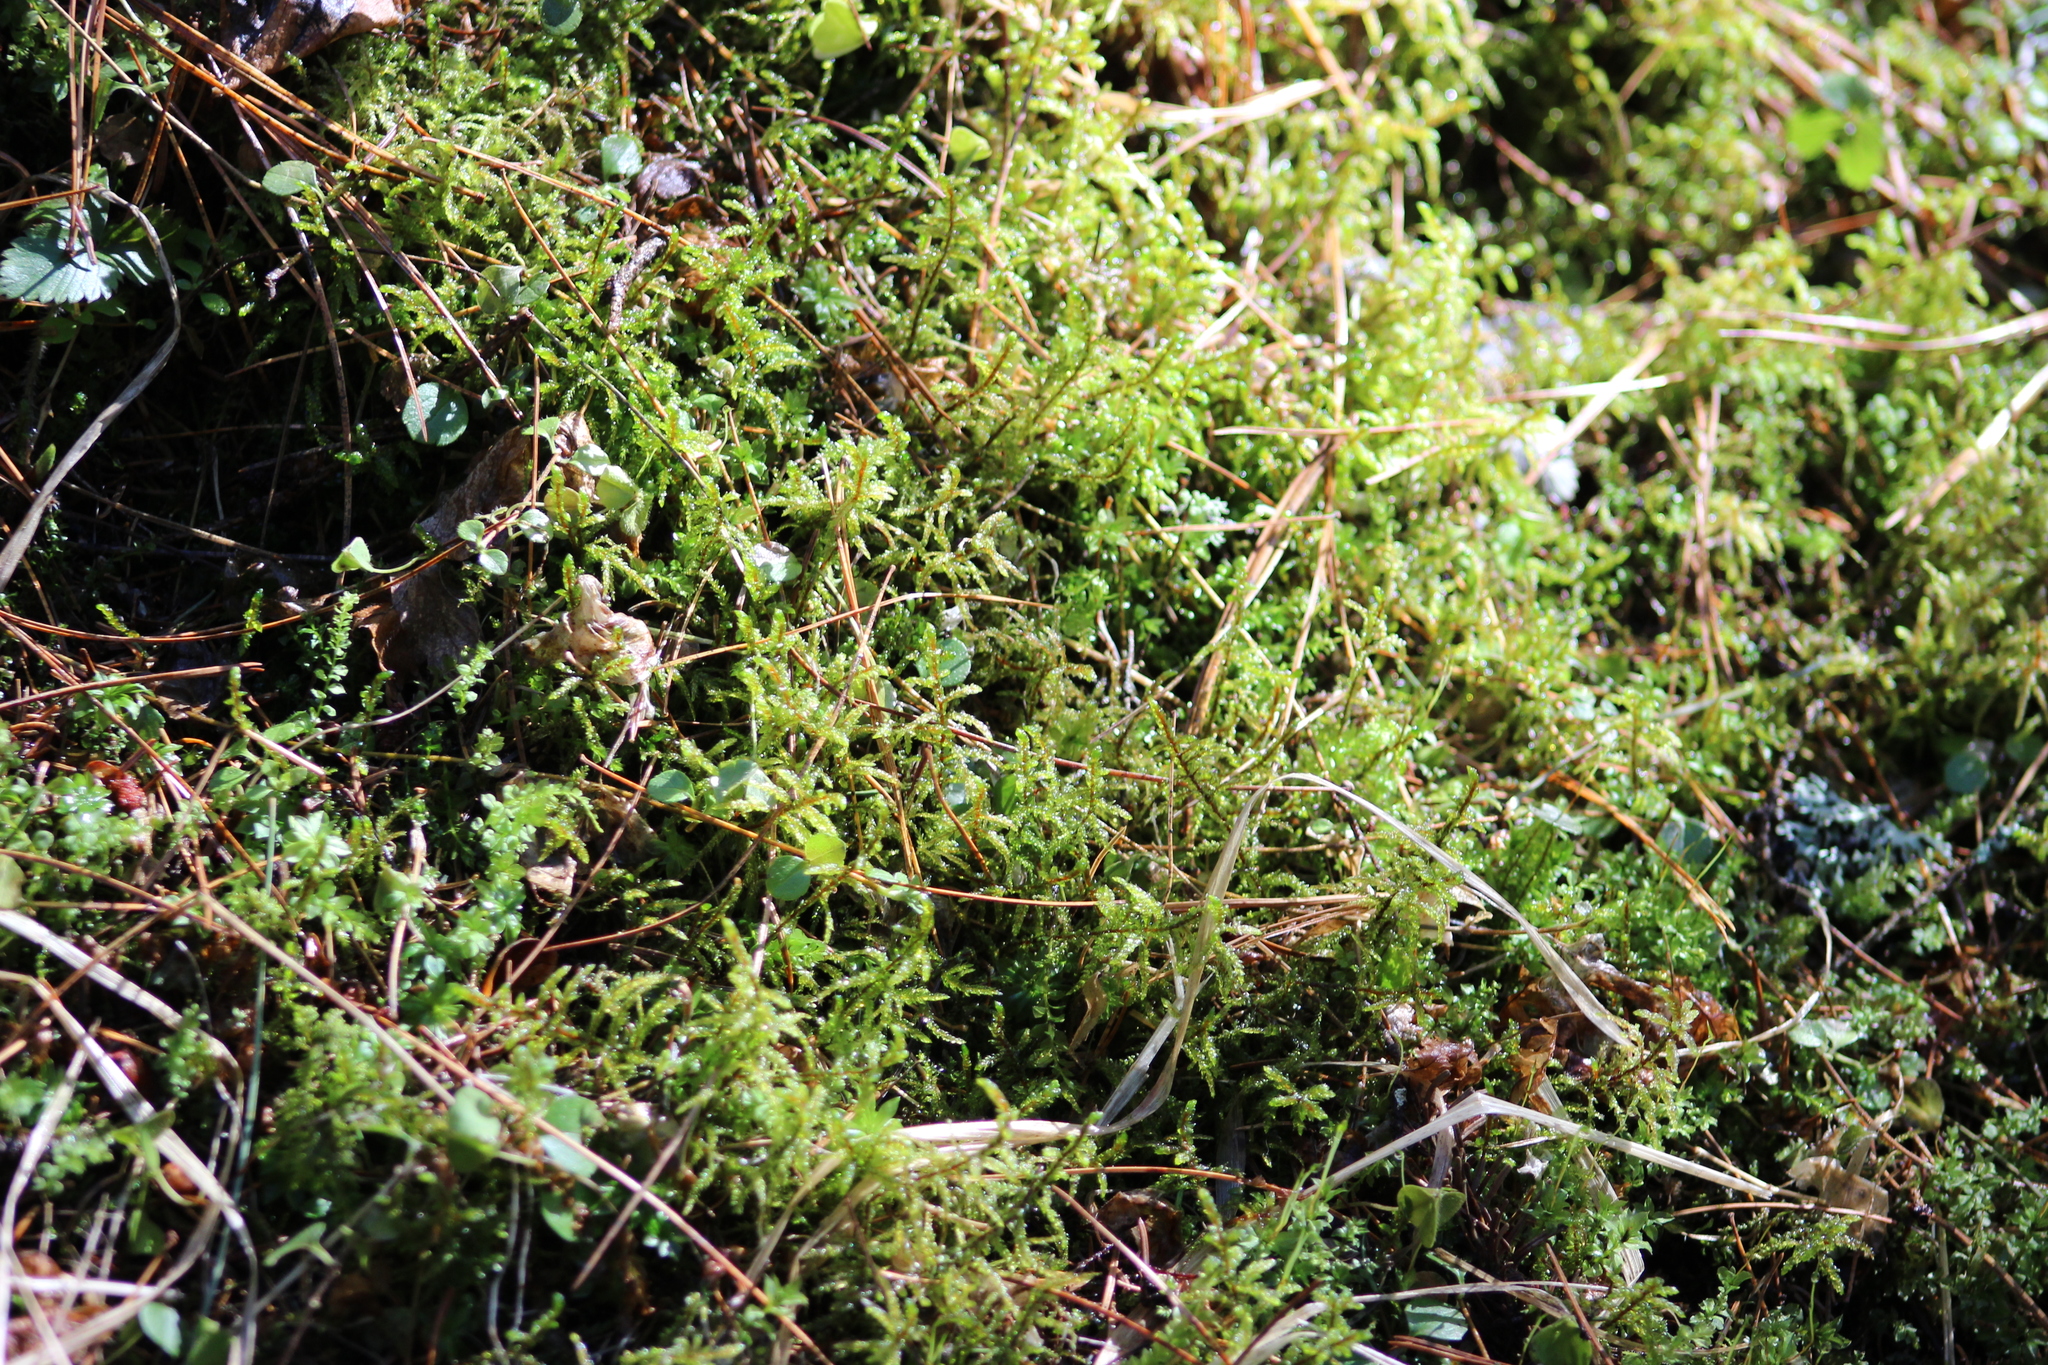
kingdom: Plantae
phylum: Bryophyta
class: Bryopsida
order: Hypnales
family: Hylocomiaceae
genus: Pleurozium
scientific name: Pleurozium schreberi
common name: Red-stemmed feather moss
